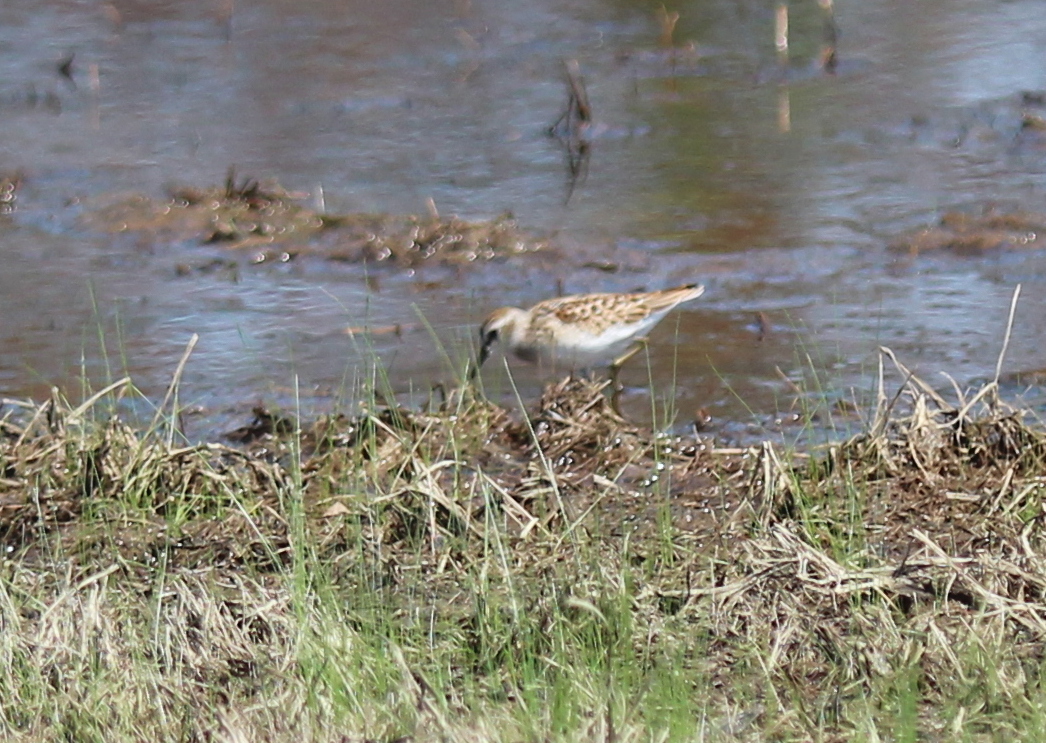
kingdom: Animalia
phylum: Chordata
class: Aves
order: Charadriiformes
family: Scolopacidae
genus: Calidris
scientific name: Calidris minutilla
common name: Least sandpiper
